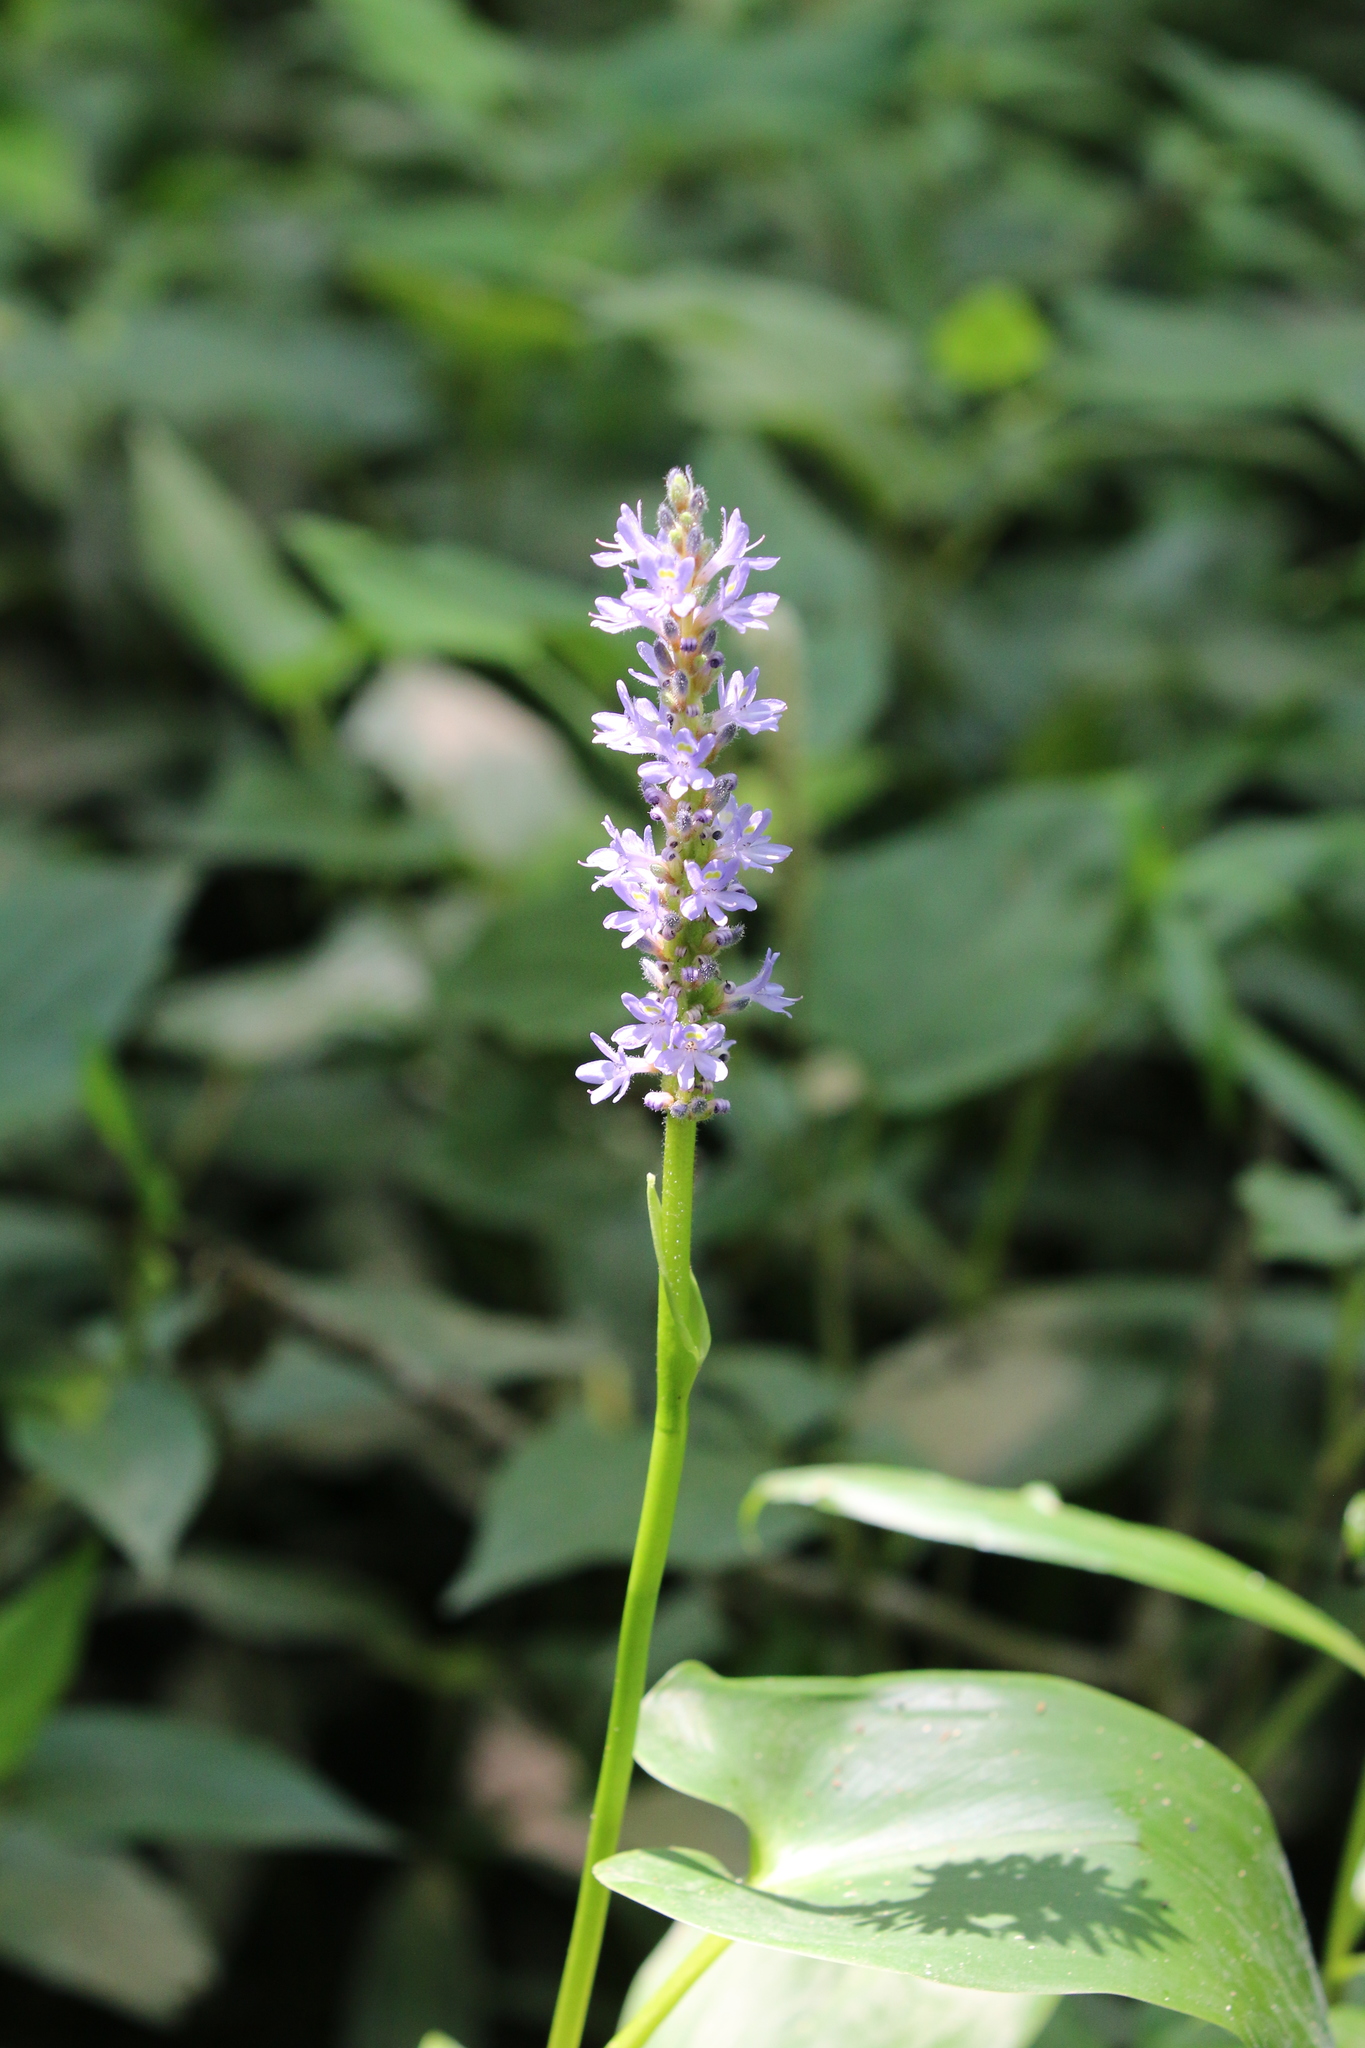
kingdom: Plantae
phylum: Tracheophyta
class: Liliopsida
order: Commelinales
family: Pontederiaceae
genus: Pontederia
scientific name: Pontederia cordata
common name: Pickerelweed
